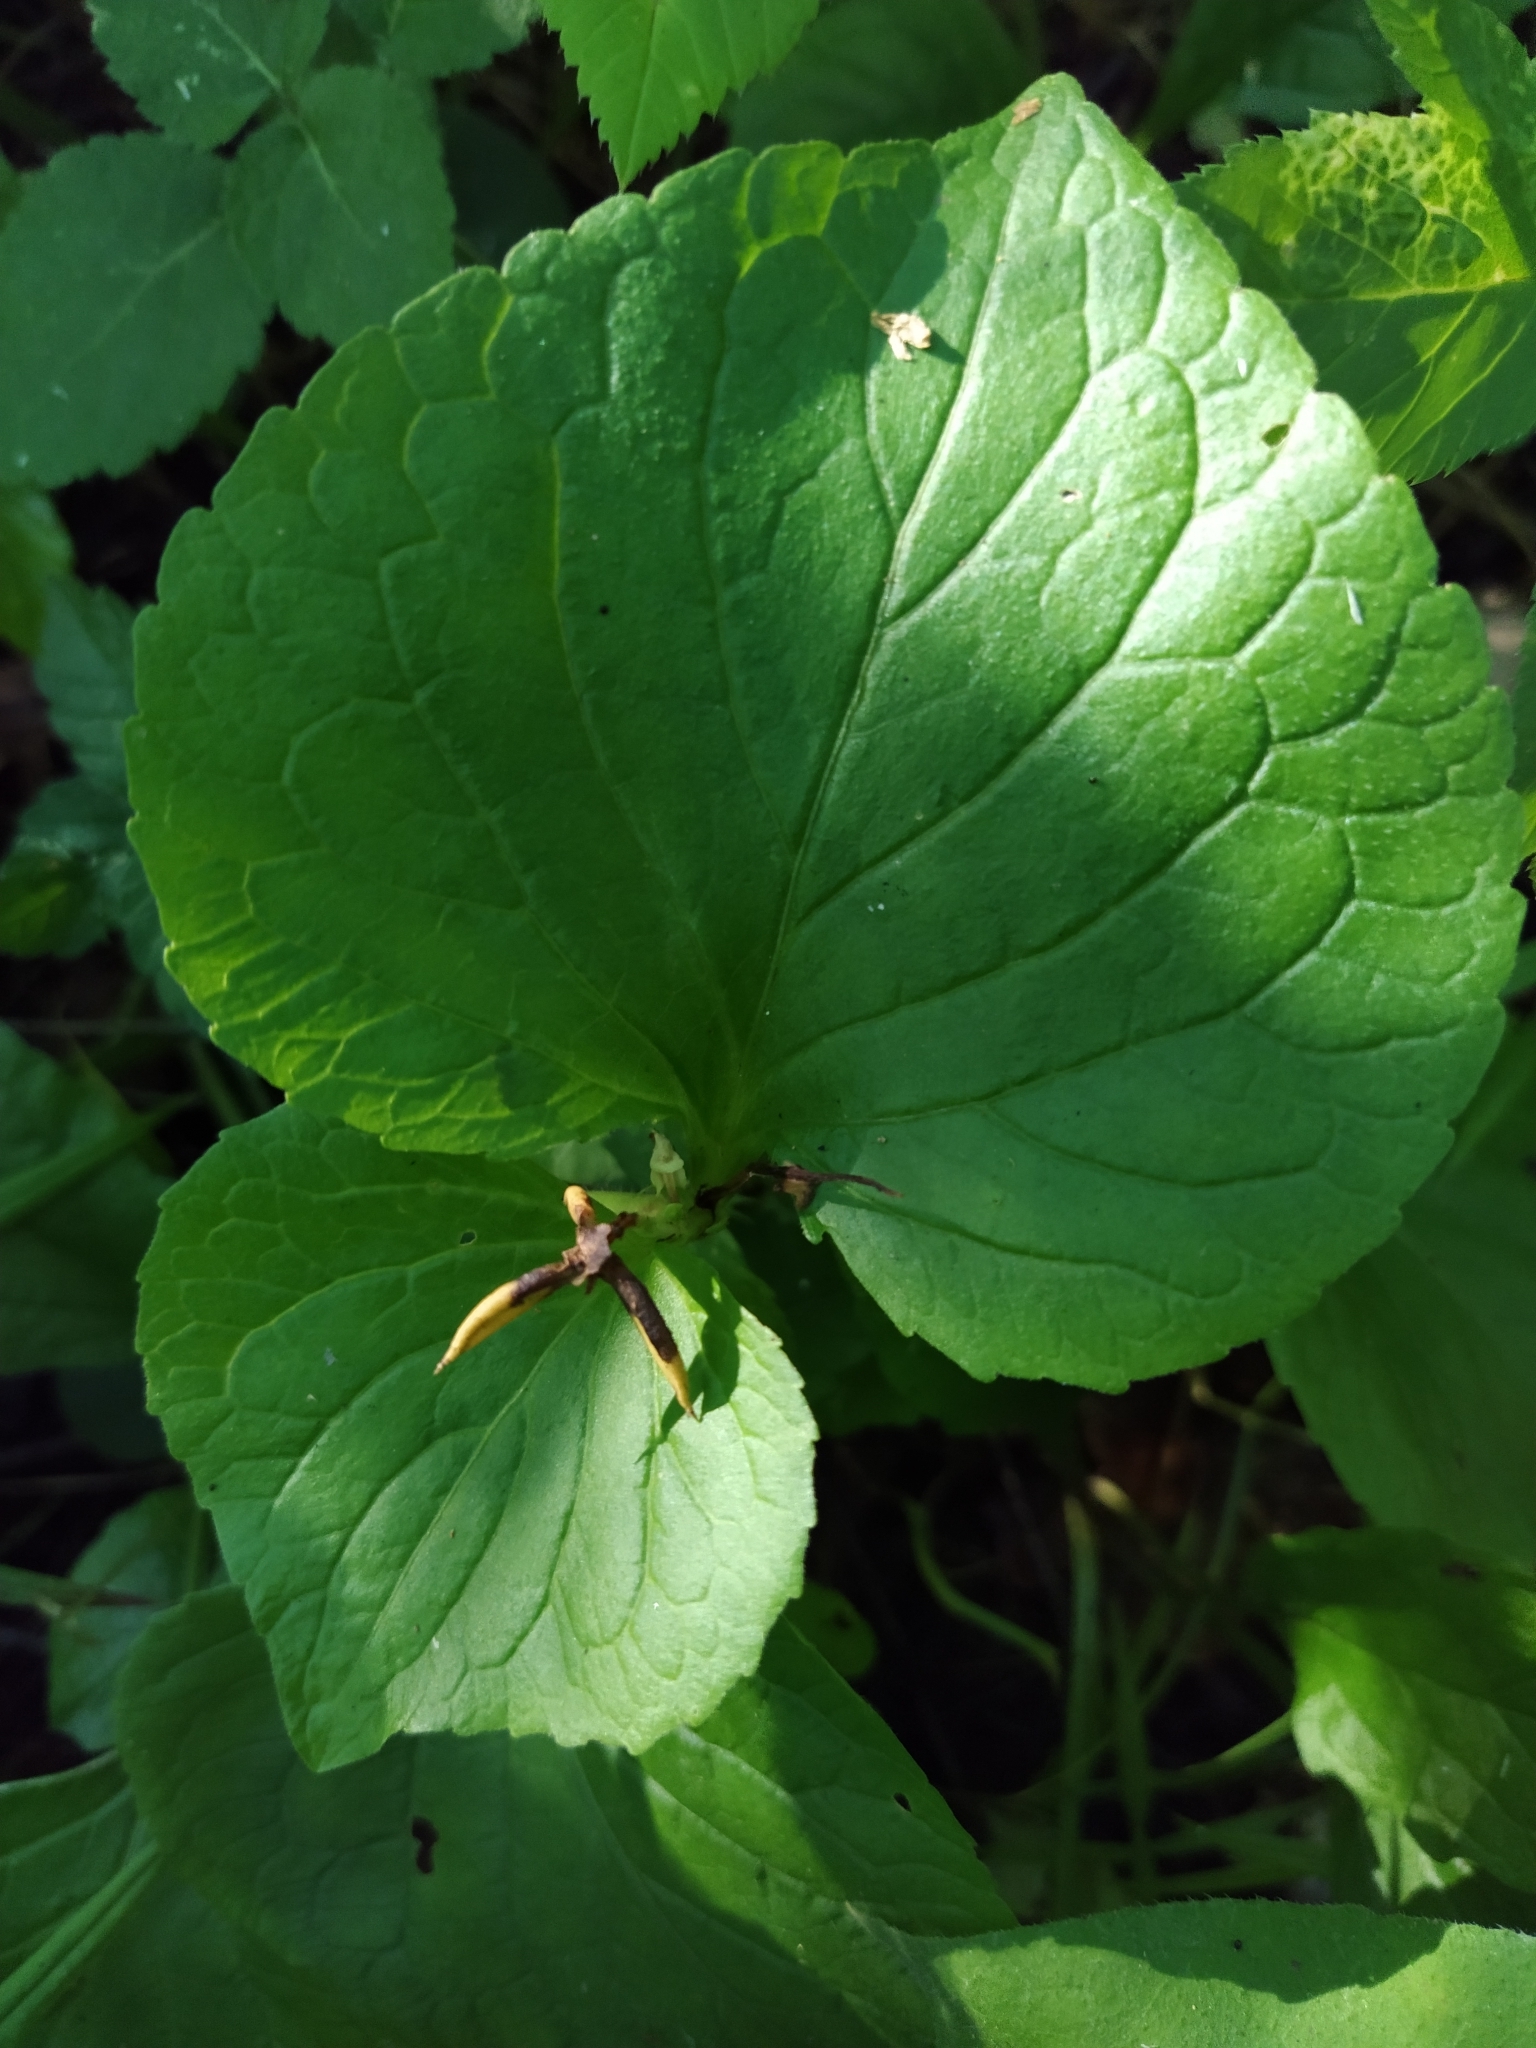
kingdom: Plantae
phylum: Tracheophyta
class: Magnoliopsida
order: Malpighiales
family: Violaceae
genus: Viola
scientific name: Viola mirabilis
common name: Wonder violet
